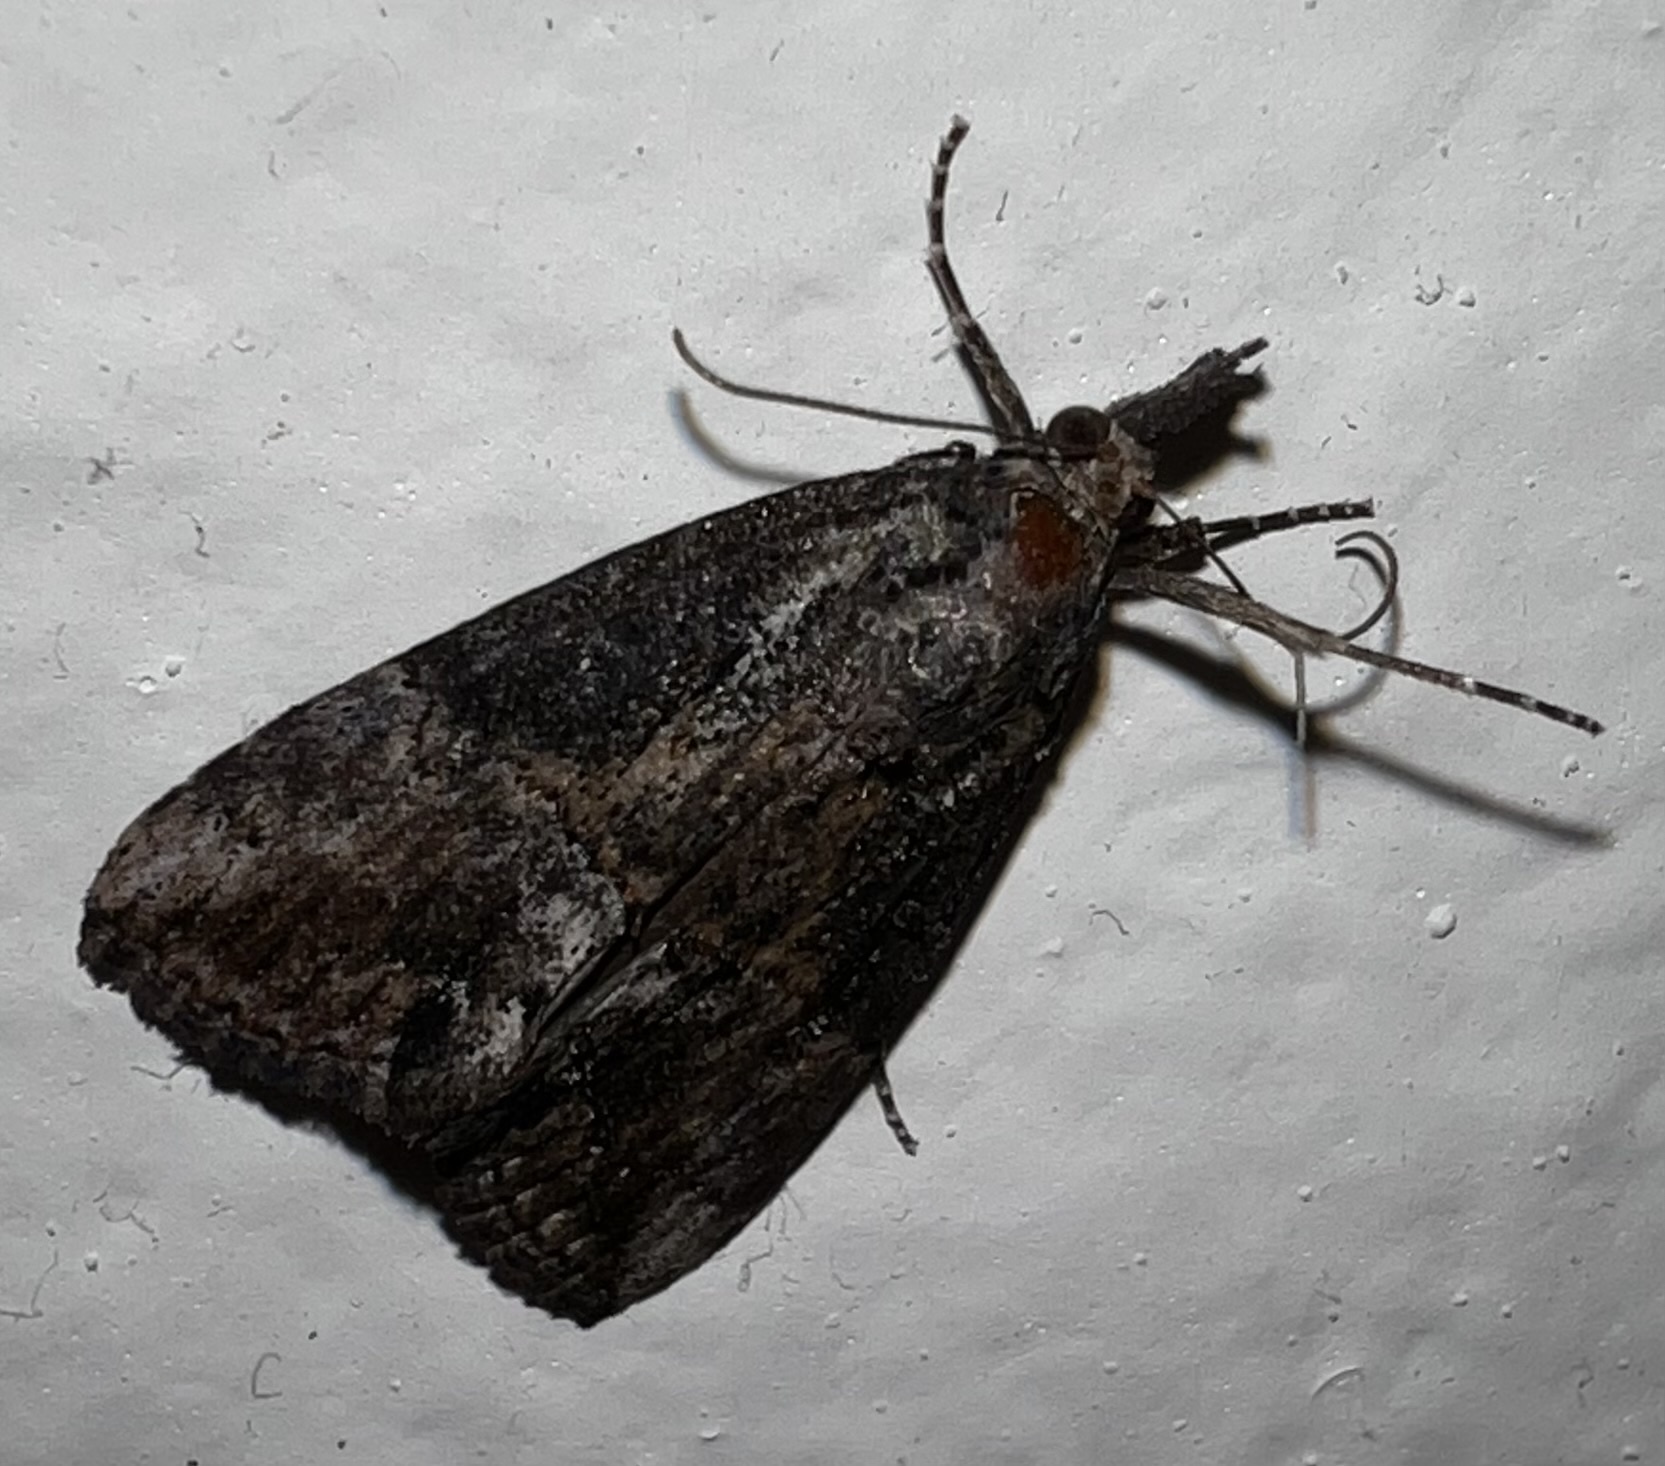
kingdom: Animalia
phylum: Arthropoda
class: Insecta
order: Lepidoptera
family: Erebidae
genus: Hypena
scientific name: Hypena scabra
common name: Green cloverworm
